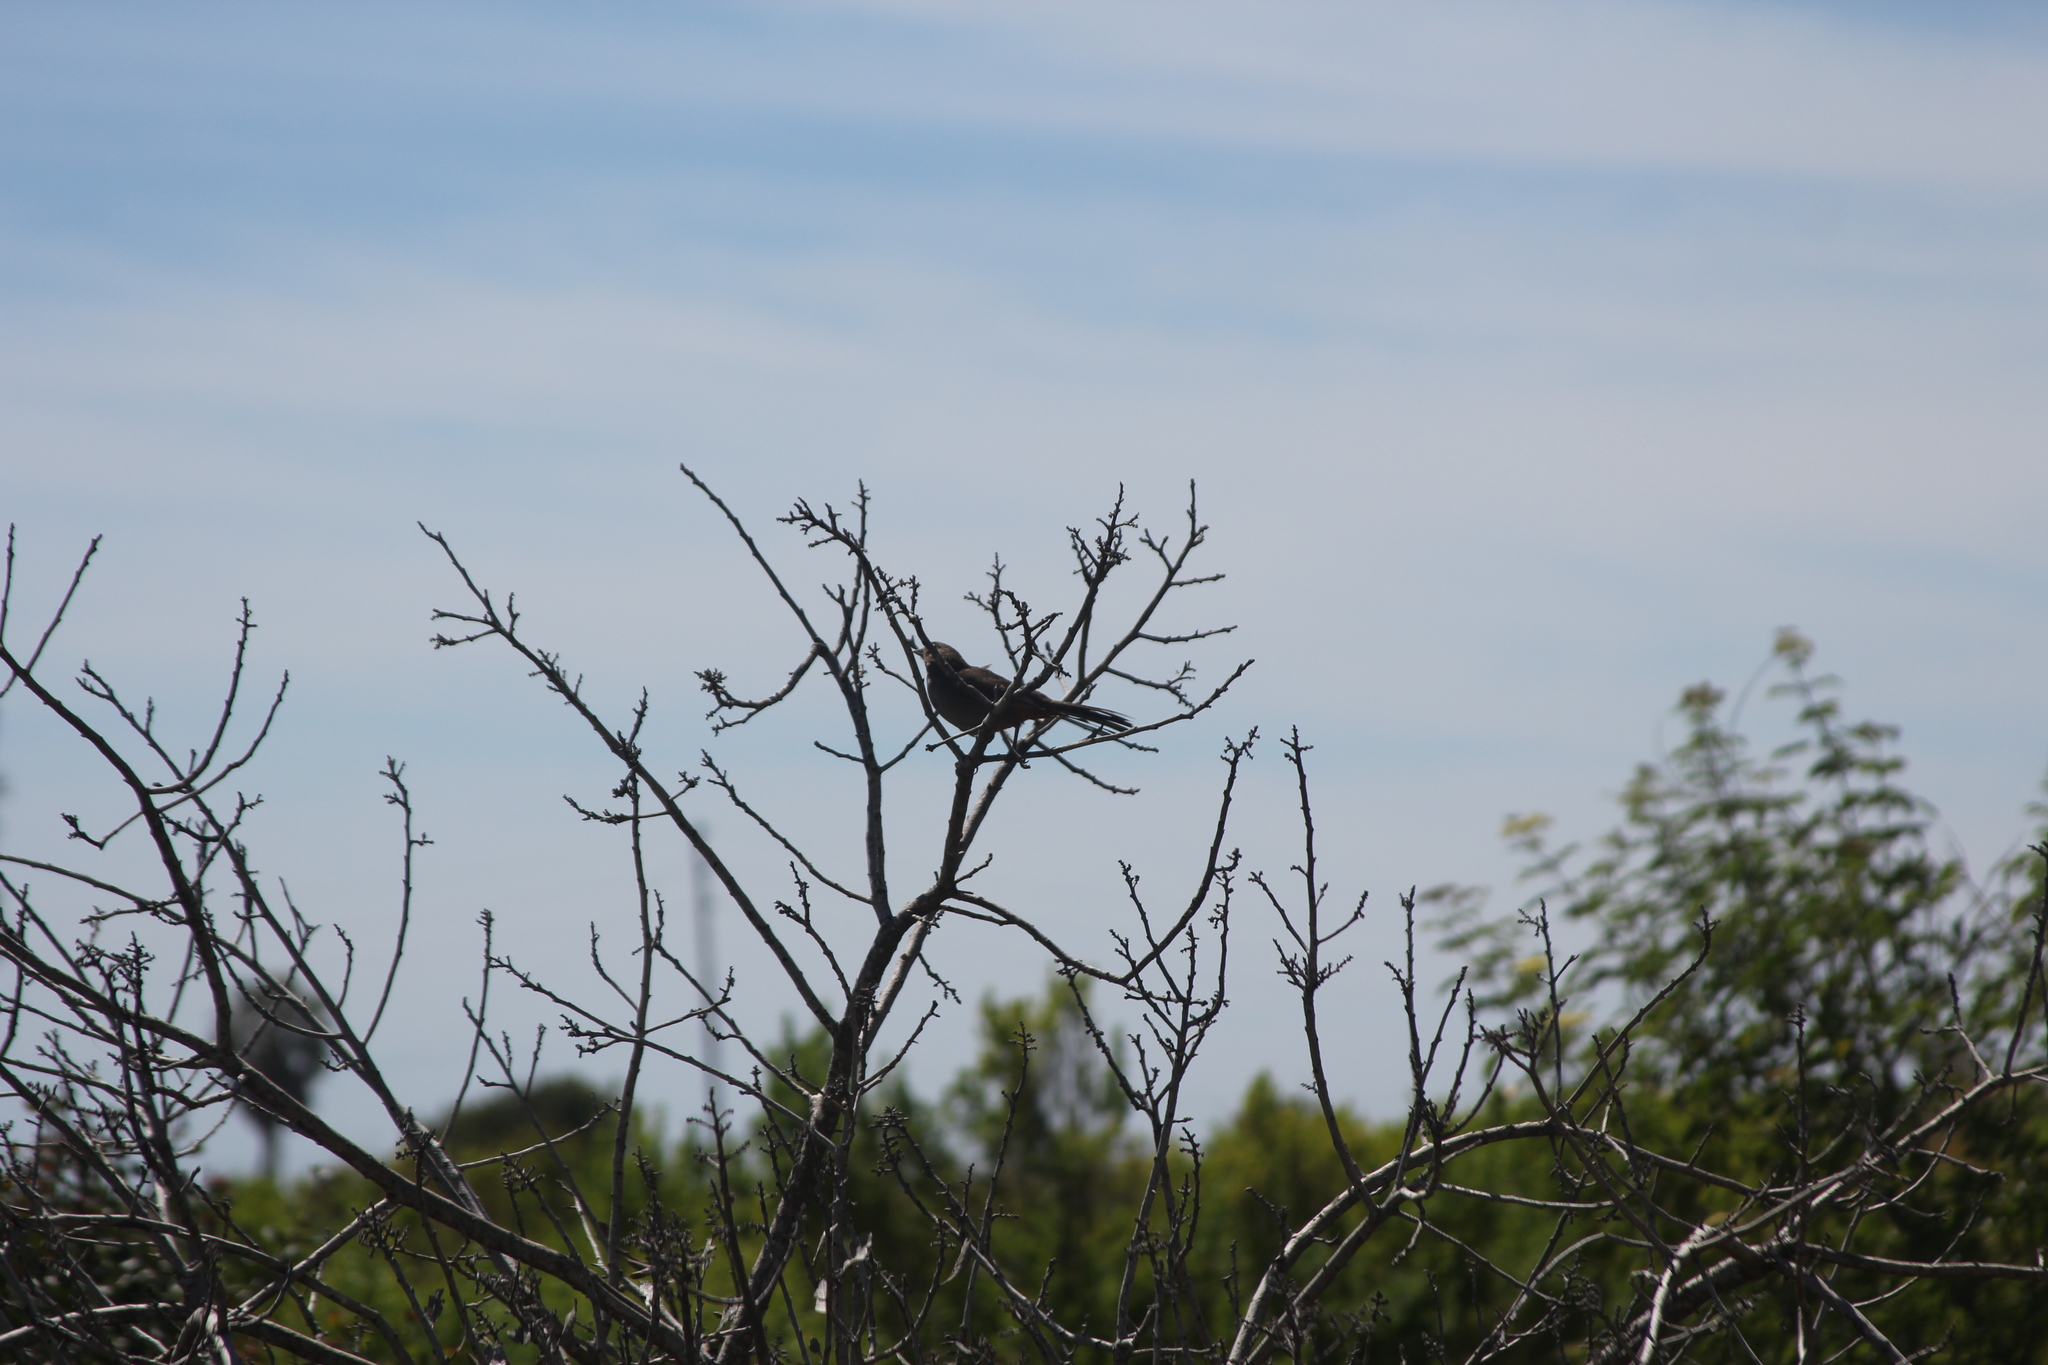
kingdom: Animalia
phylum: Chordata
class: Aves
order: Passeriformes
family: Passerellidae
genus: Melozone
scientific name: Melozone crissalis
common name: California towhee
